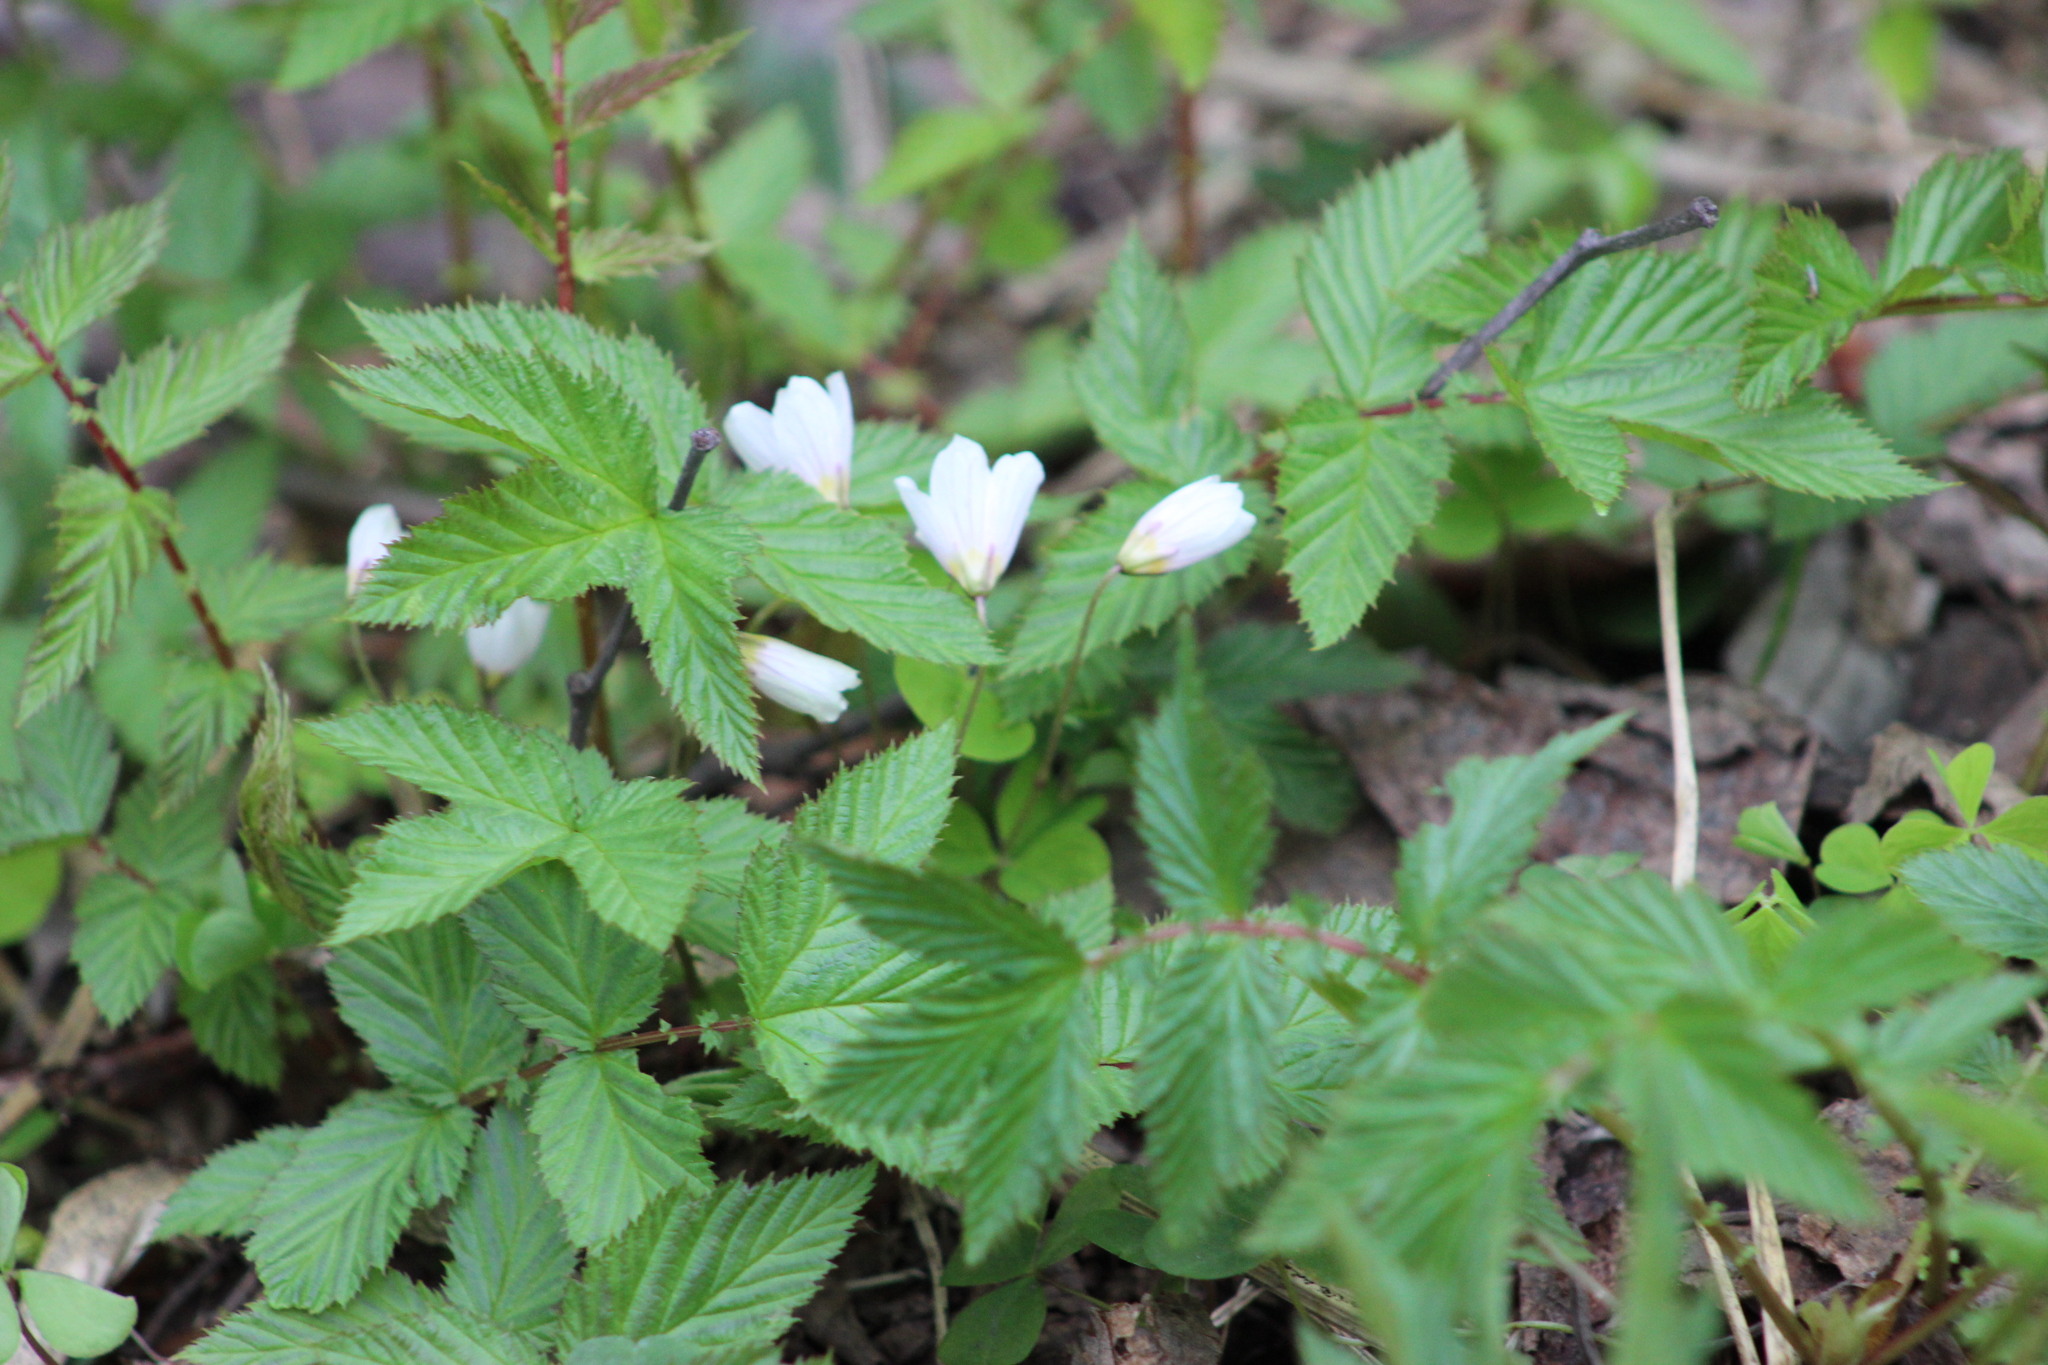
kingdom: Plantae
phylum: Tracheophyta
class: Magnoliopsida
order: Rosales
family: Rosaceae
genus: Filipendula
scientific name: Filipendula ulmaria
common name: Meadowsweet
